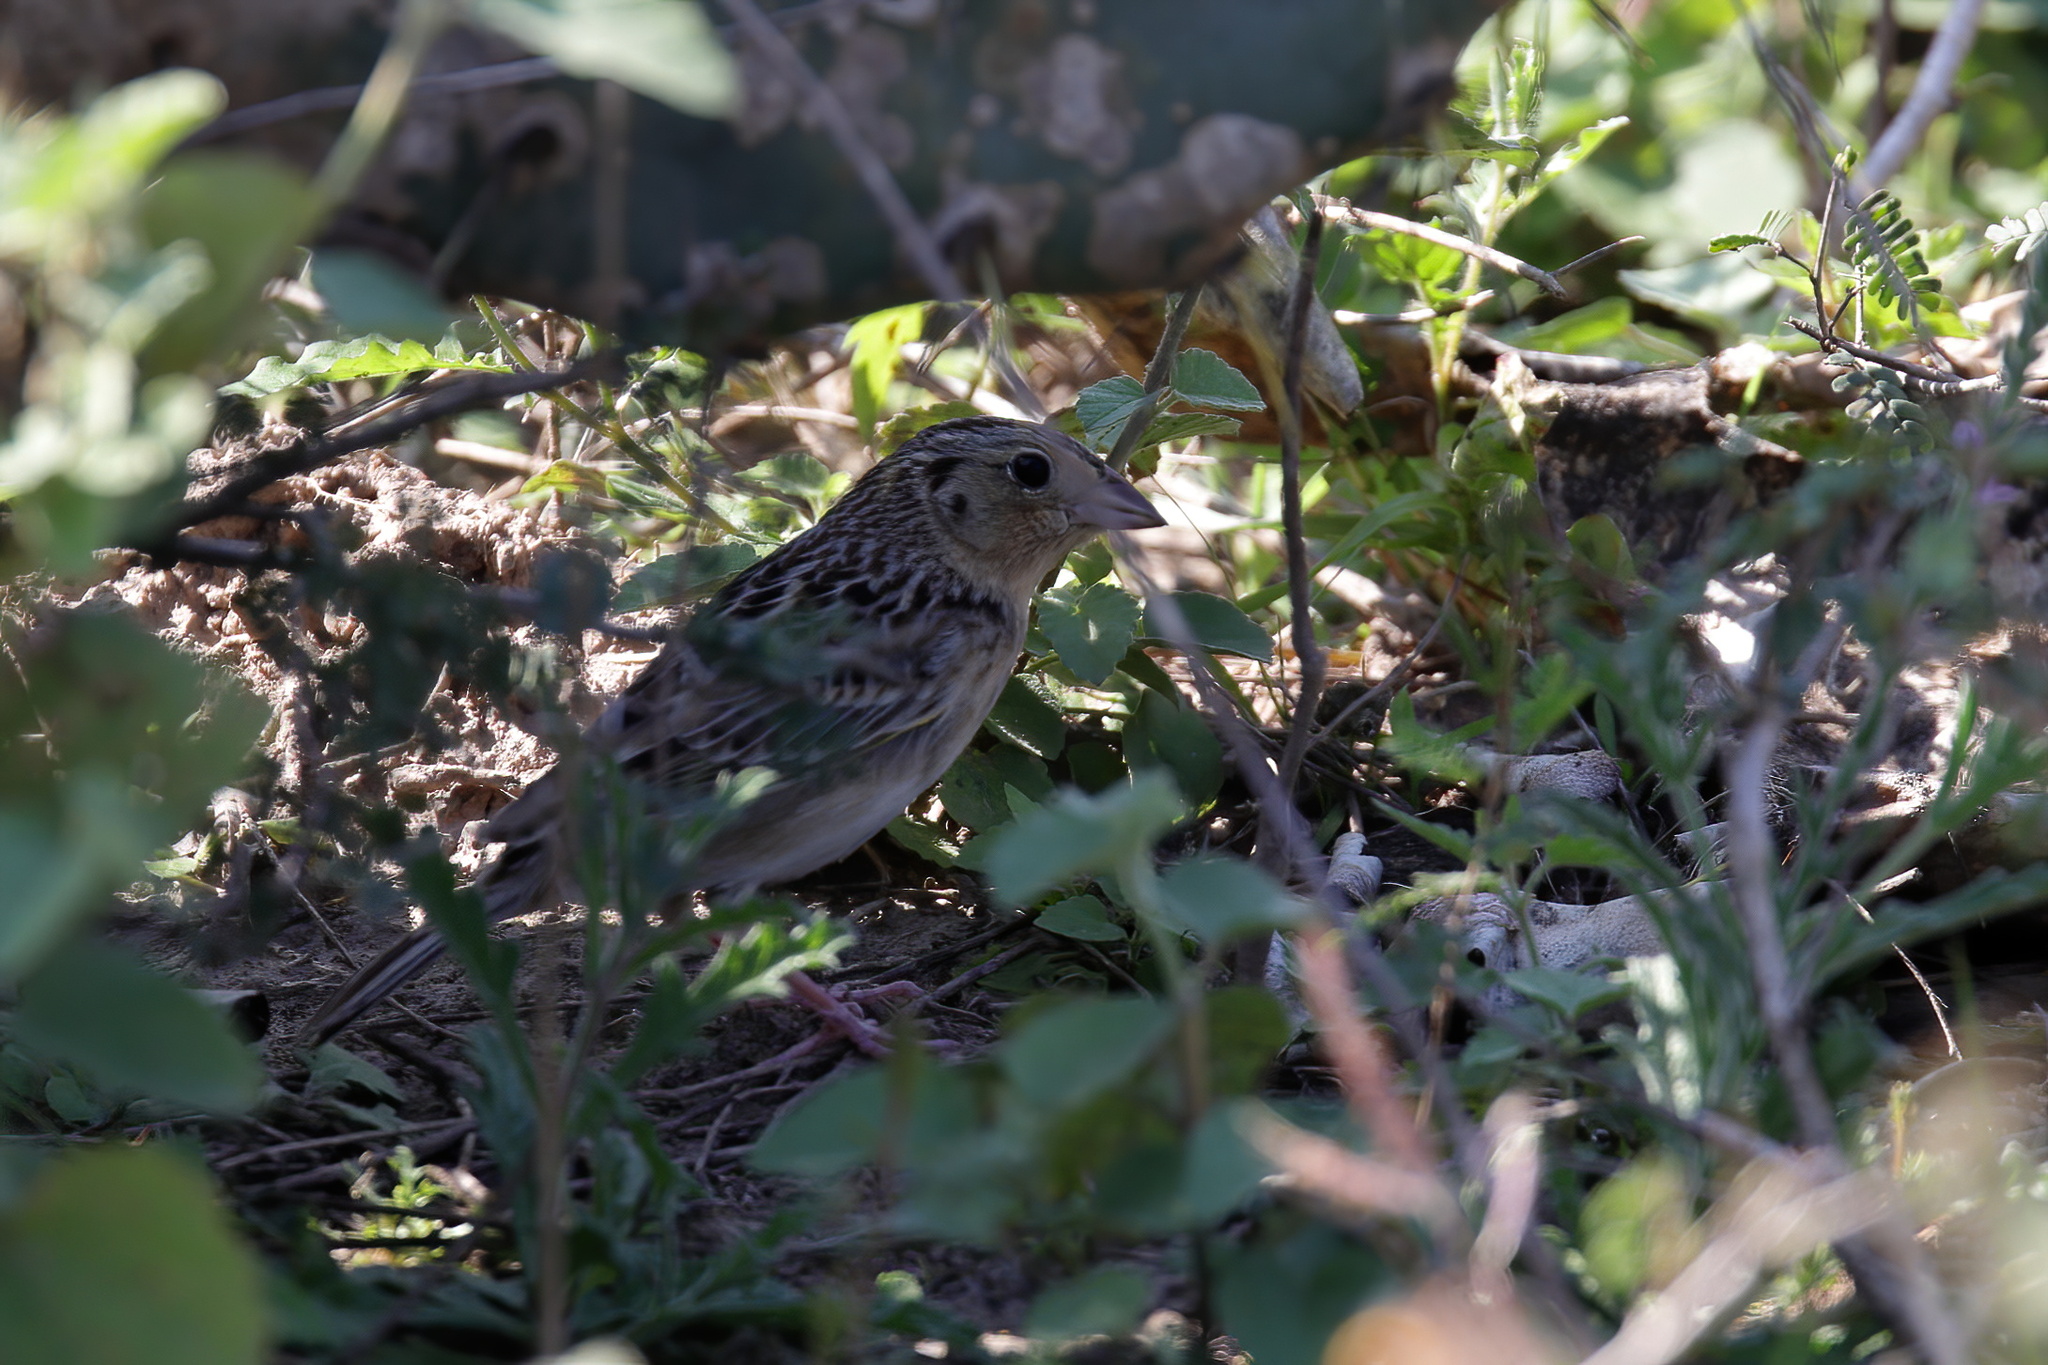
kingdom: Animalia
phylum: Chordata
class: Aves
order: Passeriformes
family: Passerellidae
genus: Ammodramus
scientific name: Ammodramus savannarum
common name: Grasshopper sparrow
